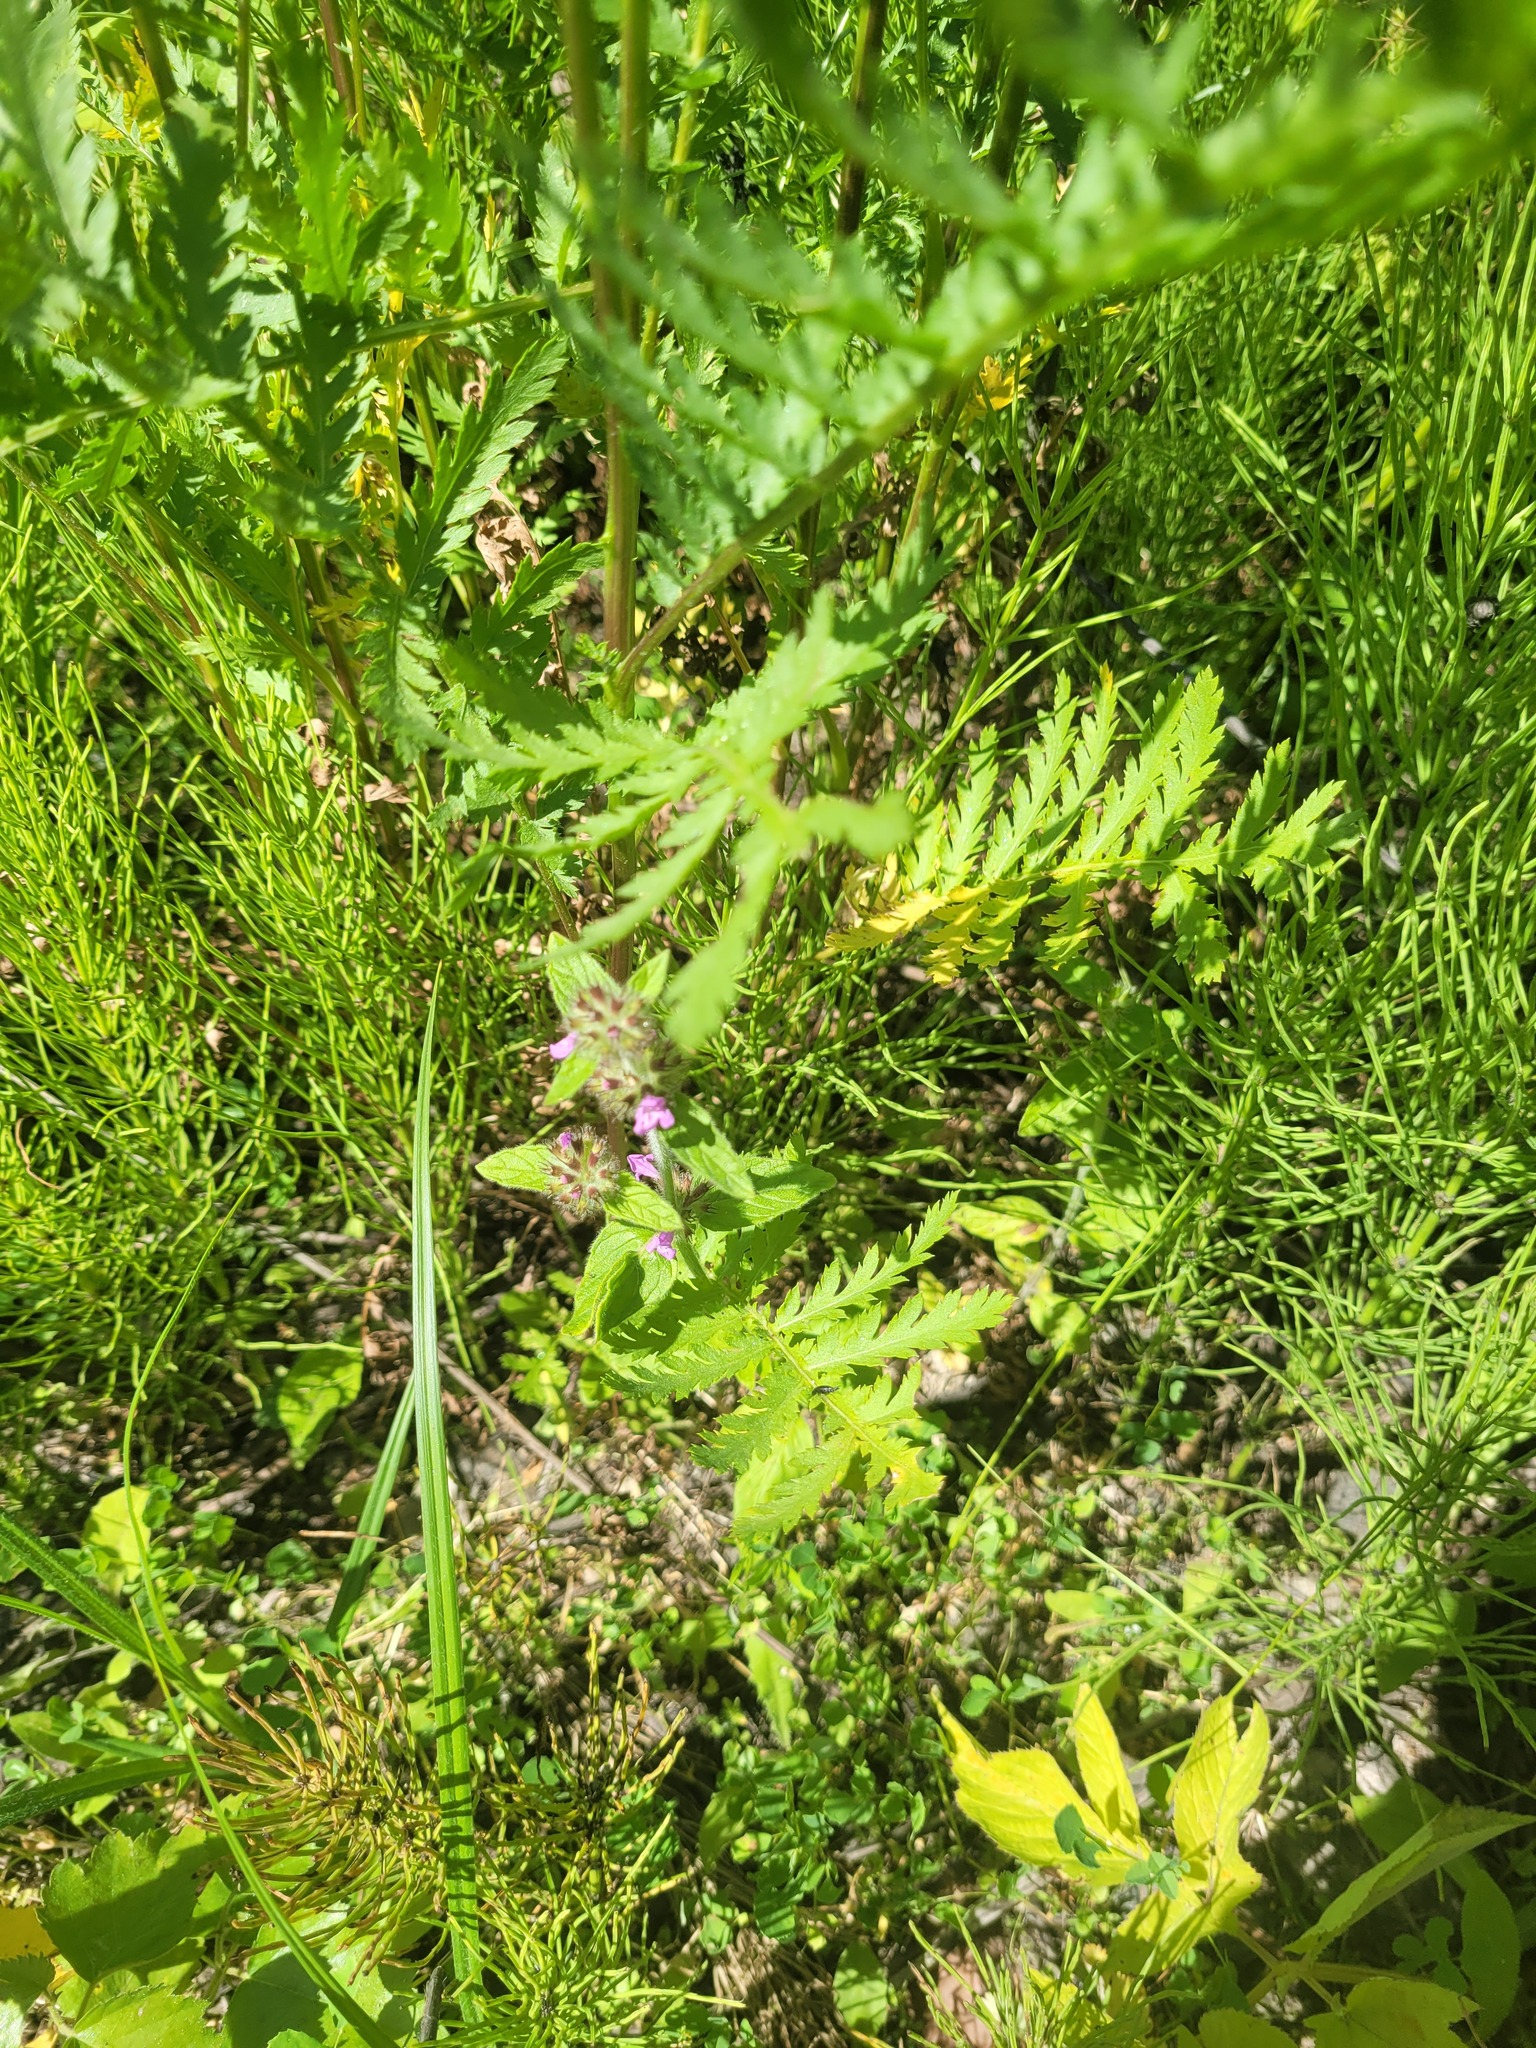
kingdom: Plantae
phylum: Tracheophyta
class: Magnoliopsida
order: Lamiales
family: Lamiaceae
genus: Clinopodium
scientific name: Clinopodium vulgare
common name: Wild basil
